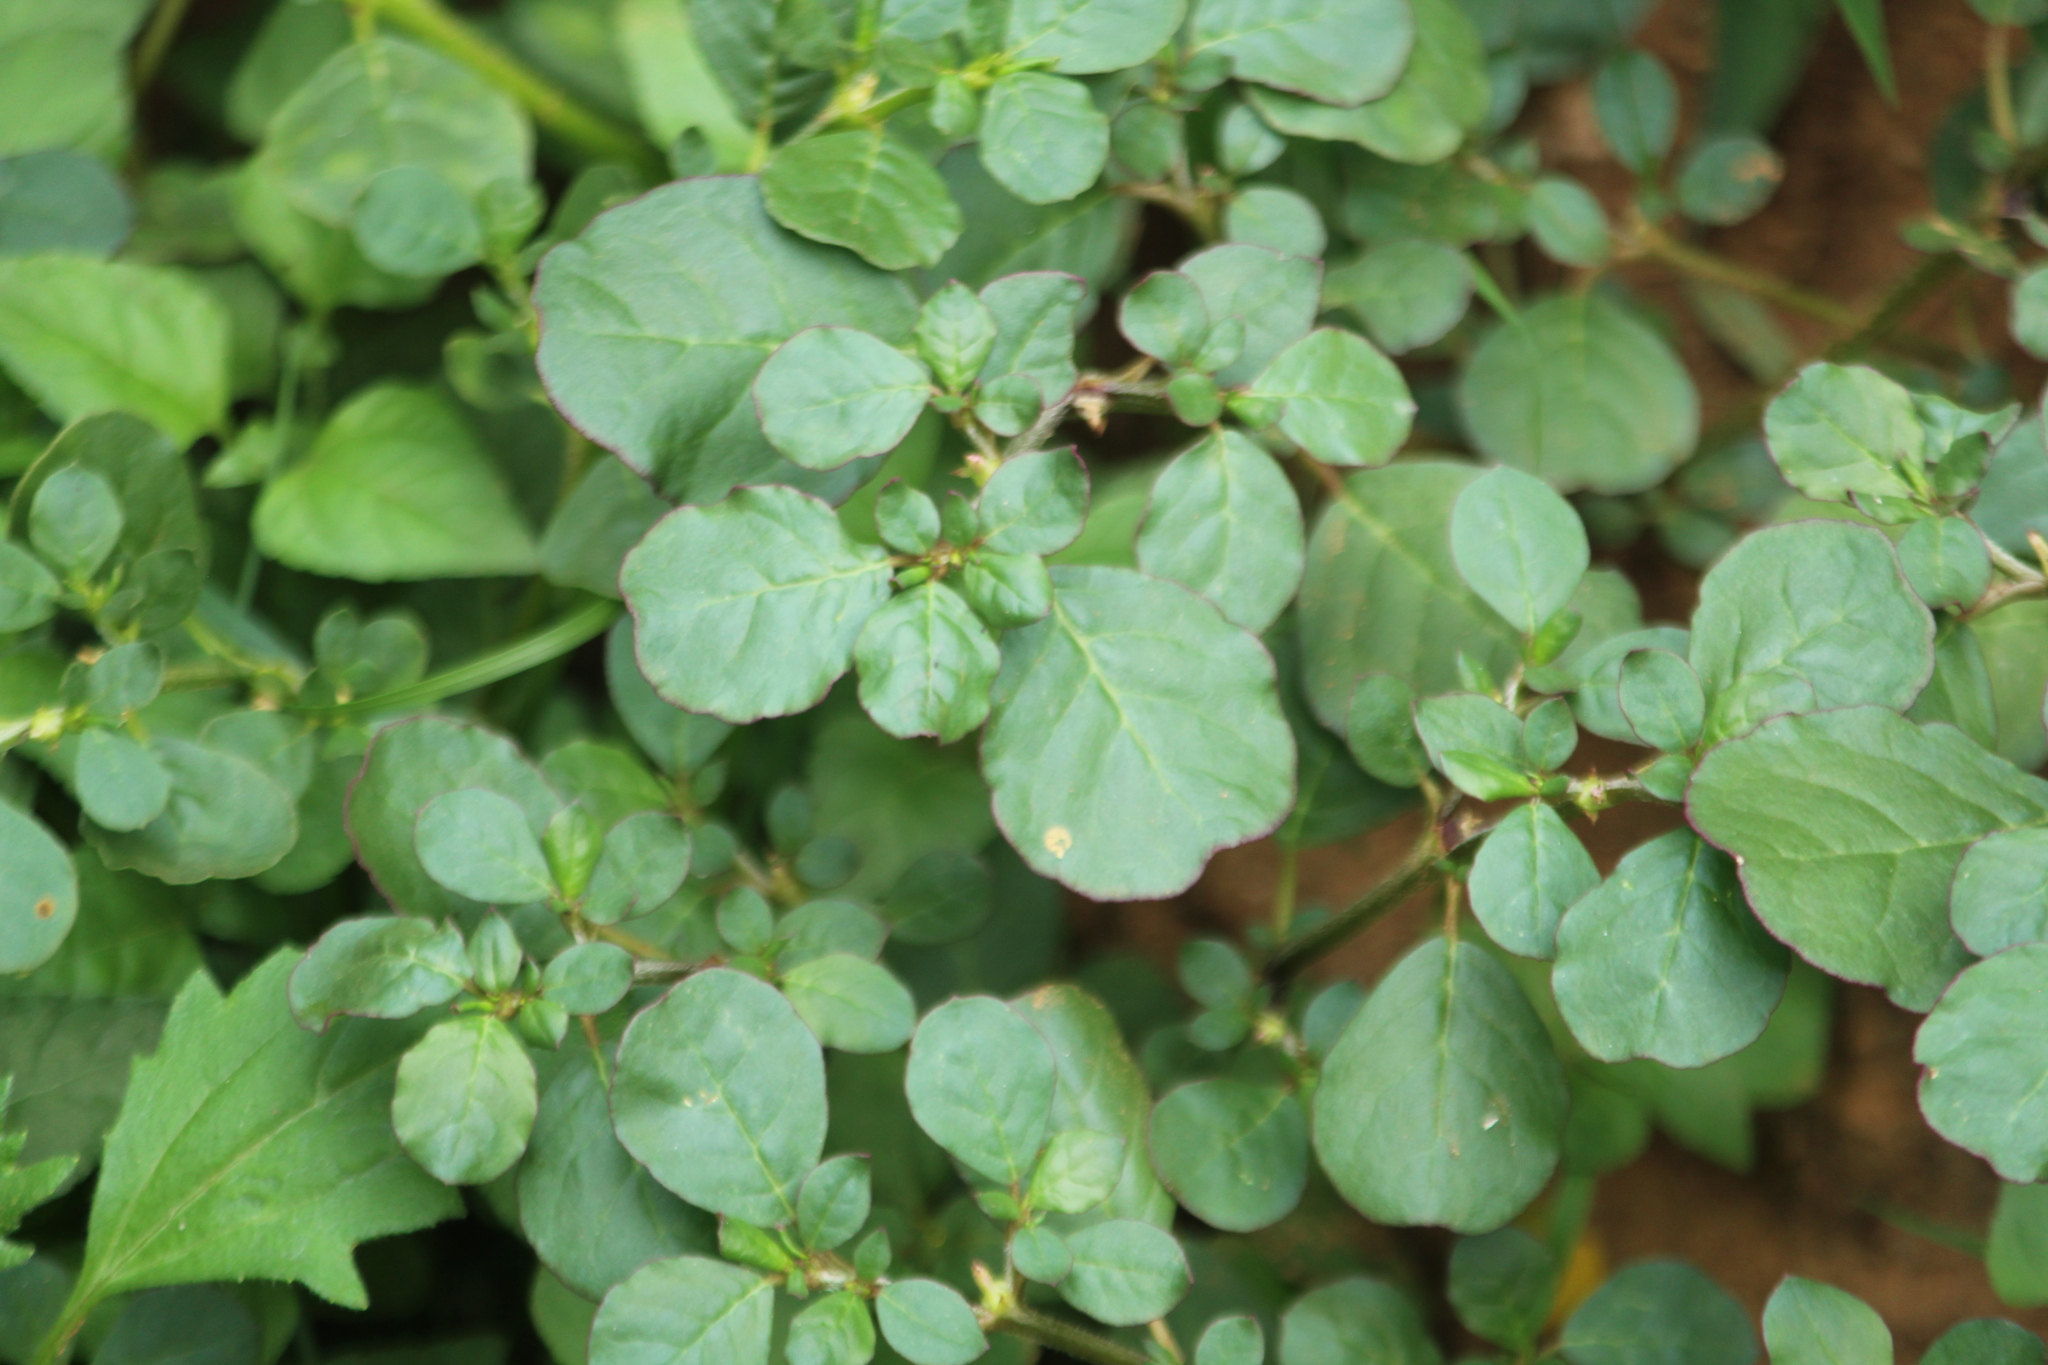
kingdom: Plantae
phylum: Tracheophyta
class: Magnoliopsida
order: Caryophyllales
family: Aizoaceae
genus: Trianthema
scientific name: Trianthema portulacastrum
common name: Desert horsepurslane
